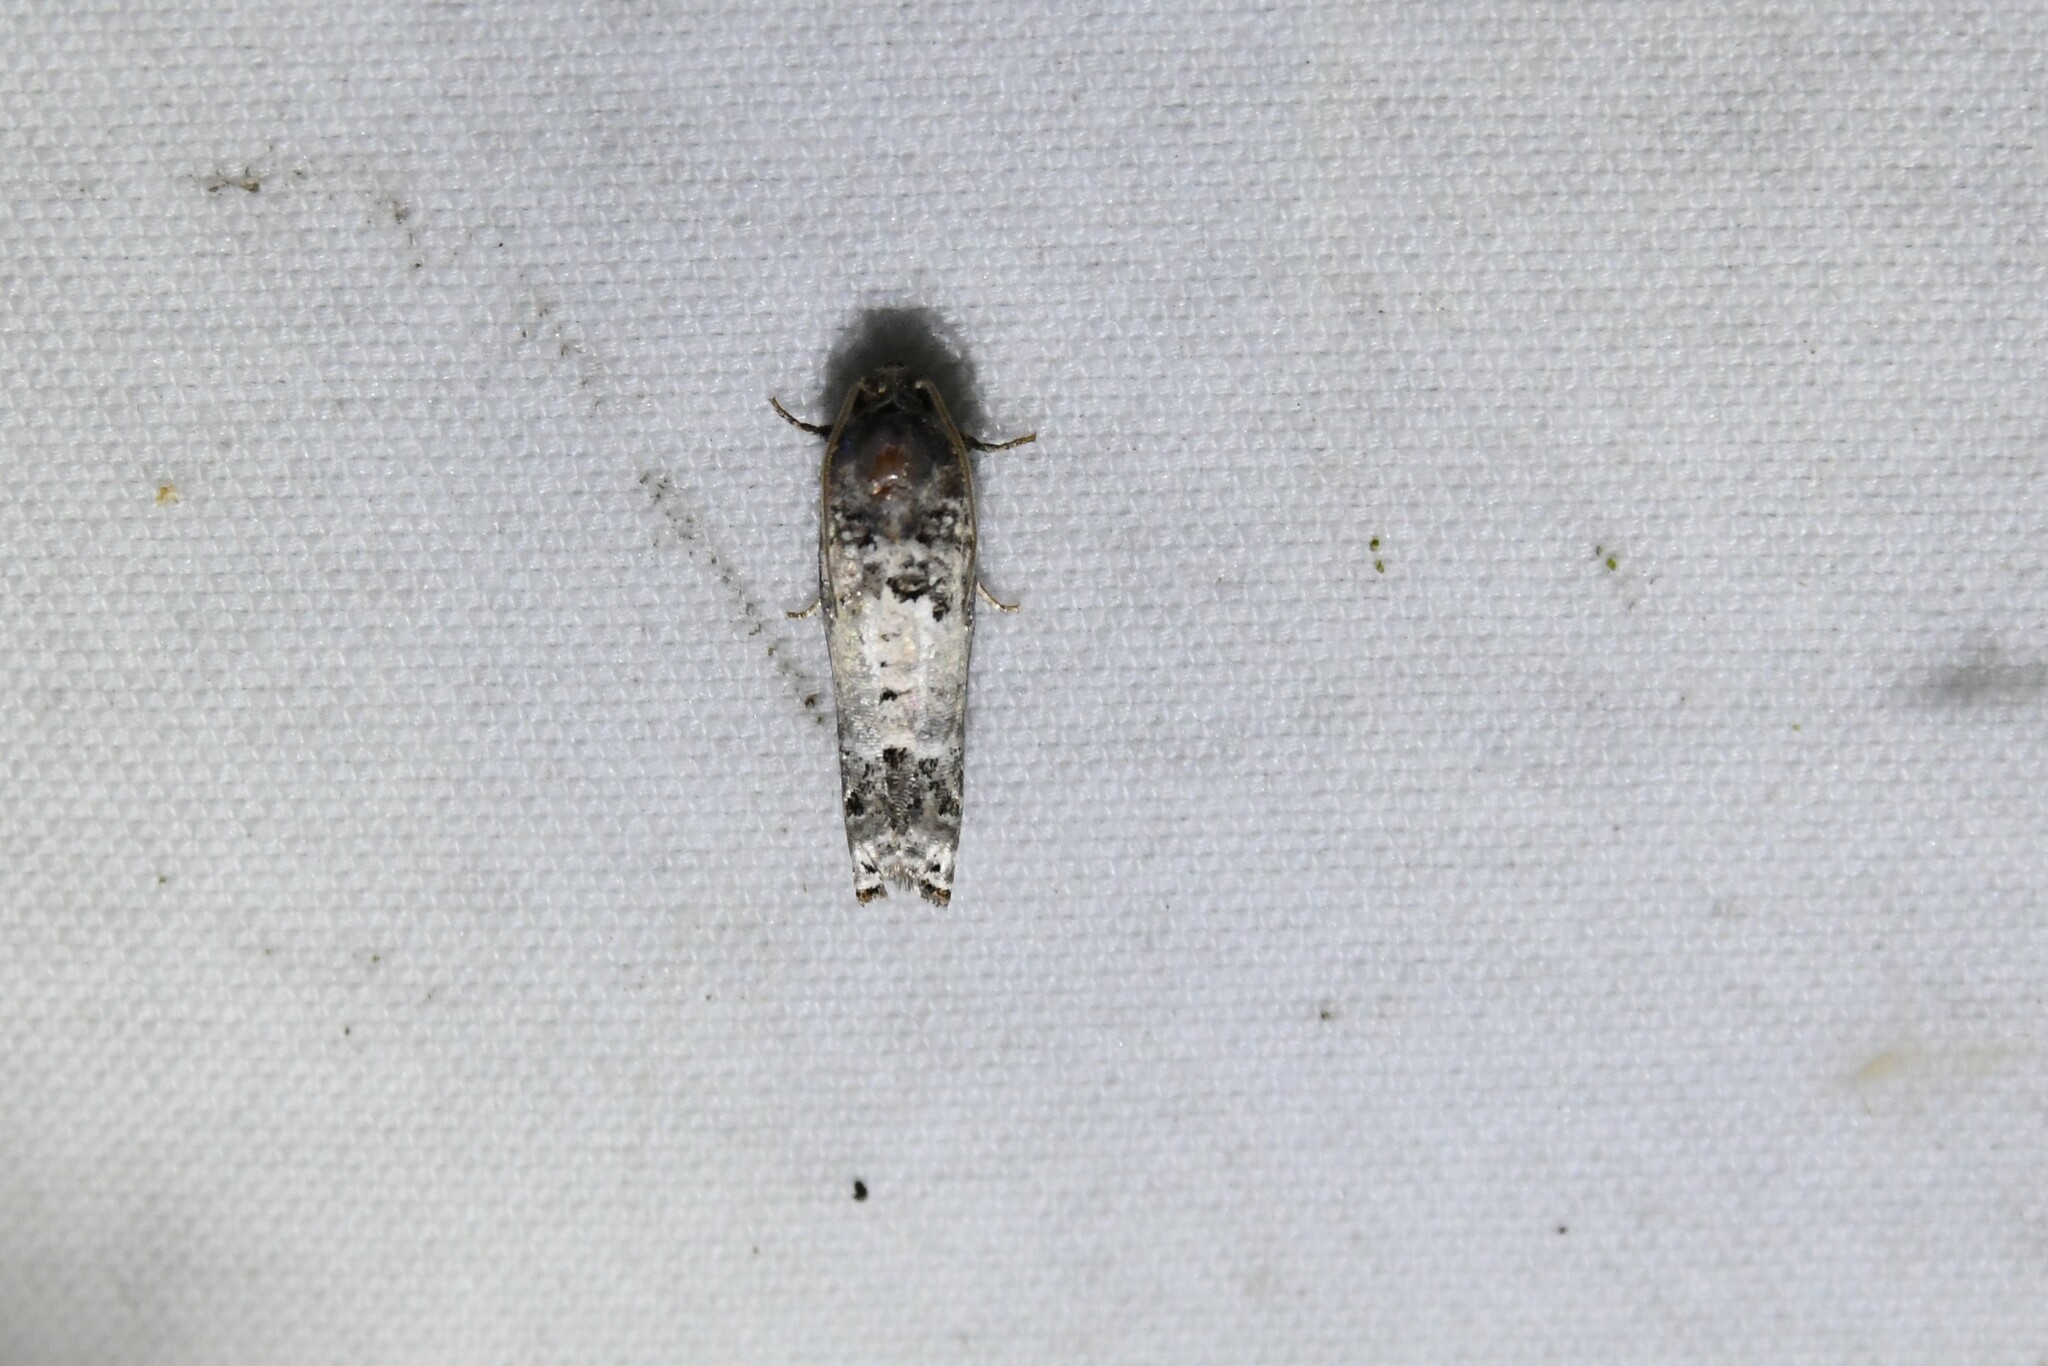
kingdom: Animalia
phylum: Arthropoda
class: Insecta
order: Lepidoptera
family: Tortricidae
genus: Epiblema
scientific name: Epiblema carolinana
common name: Gray-blotched epiblema moth
